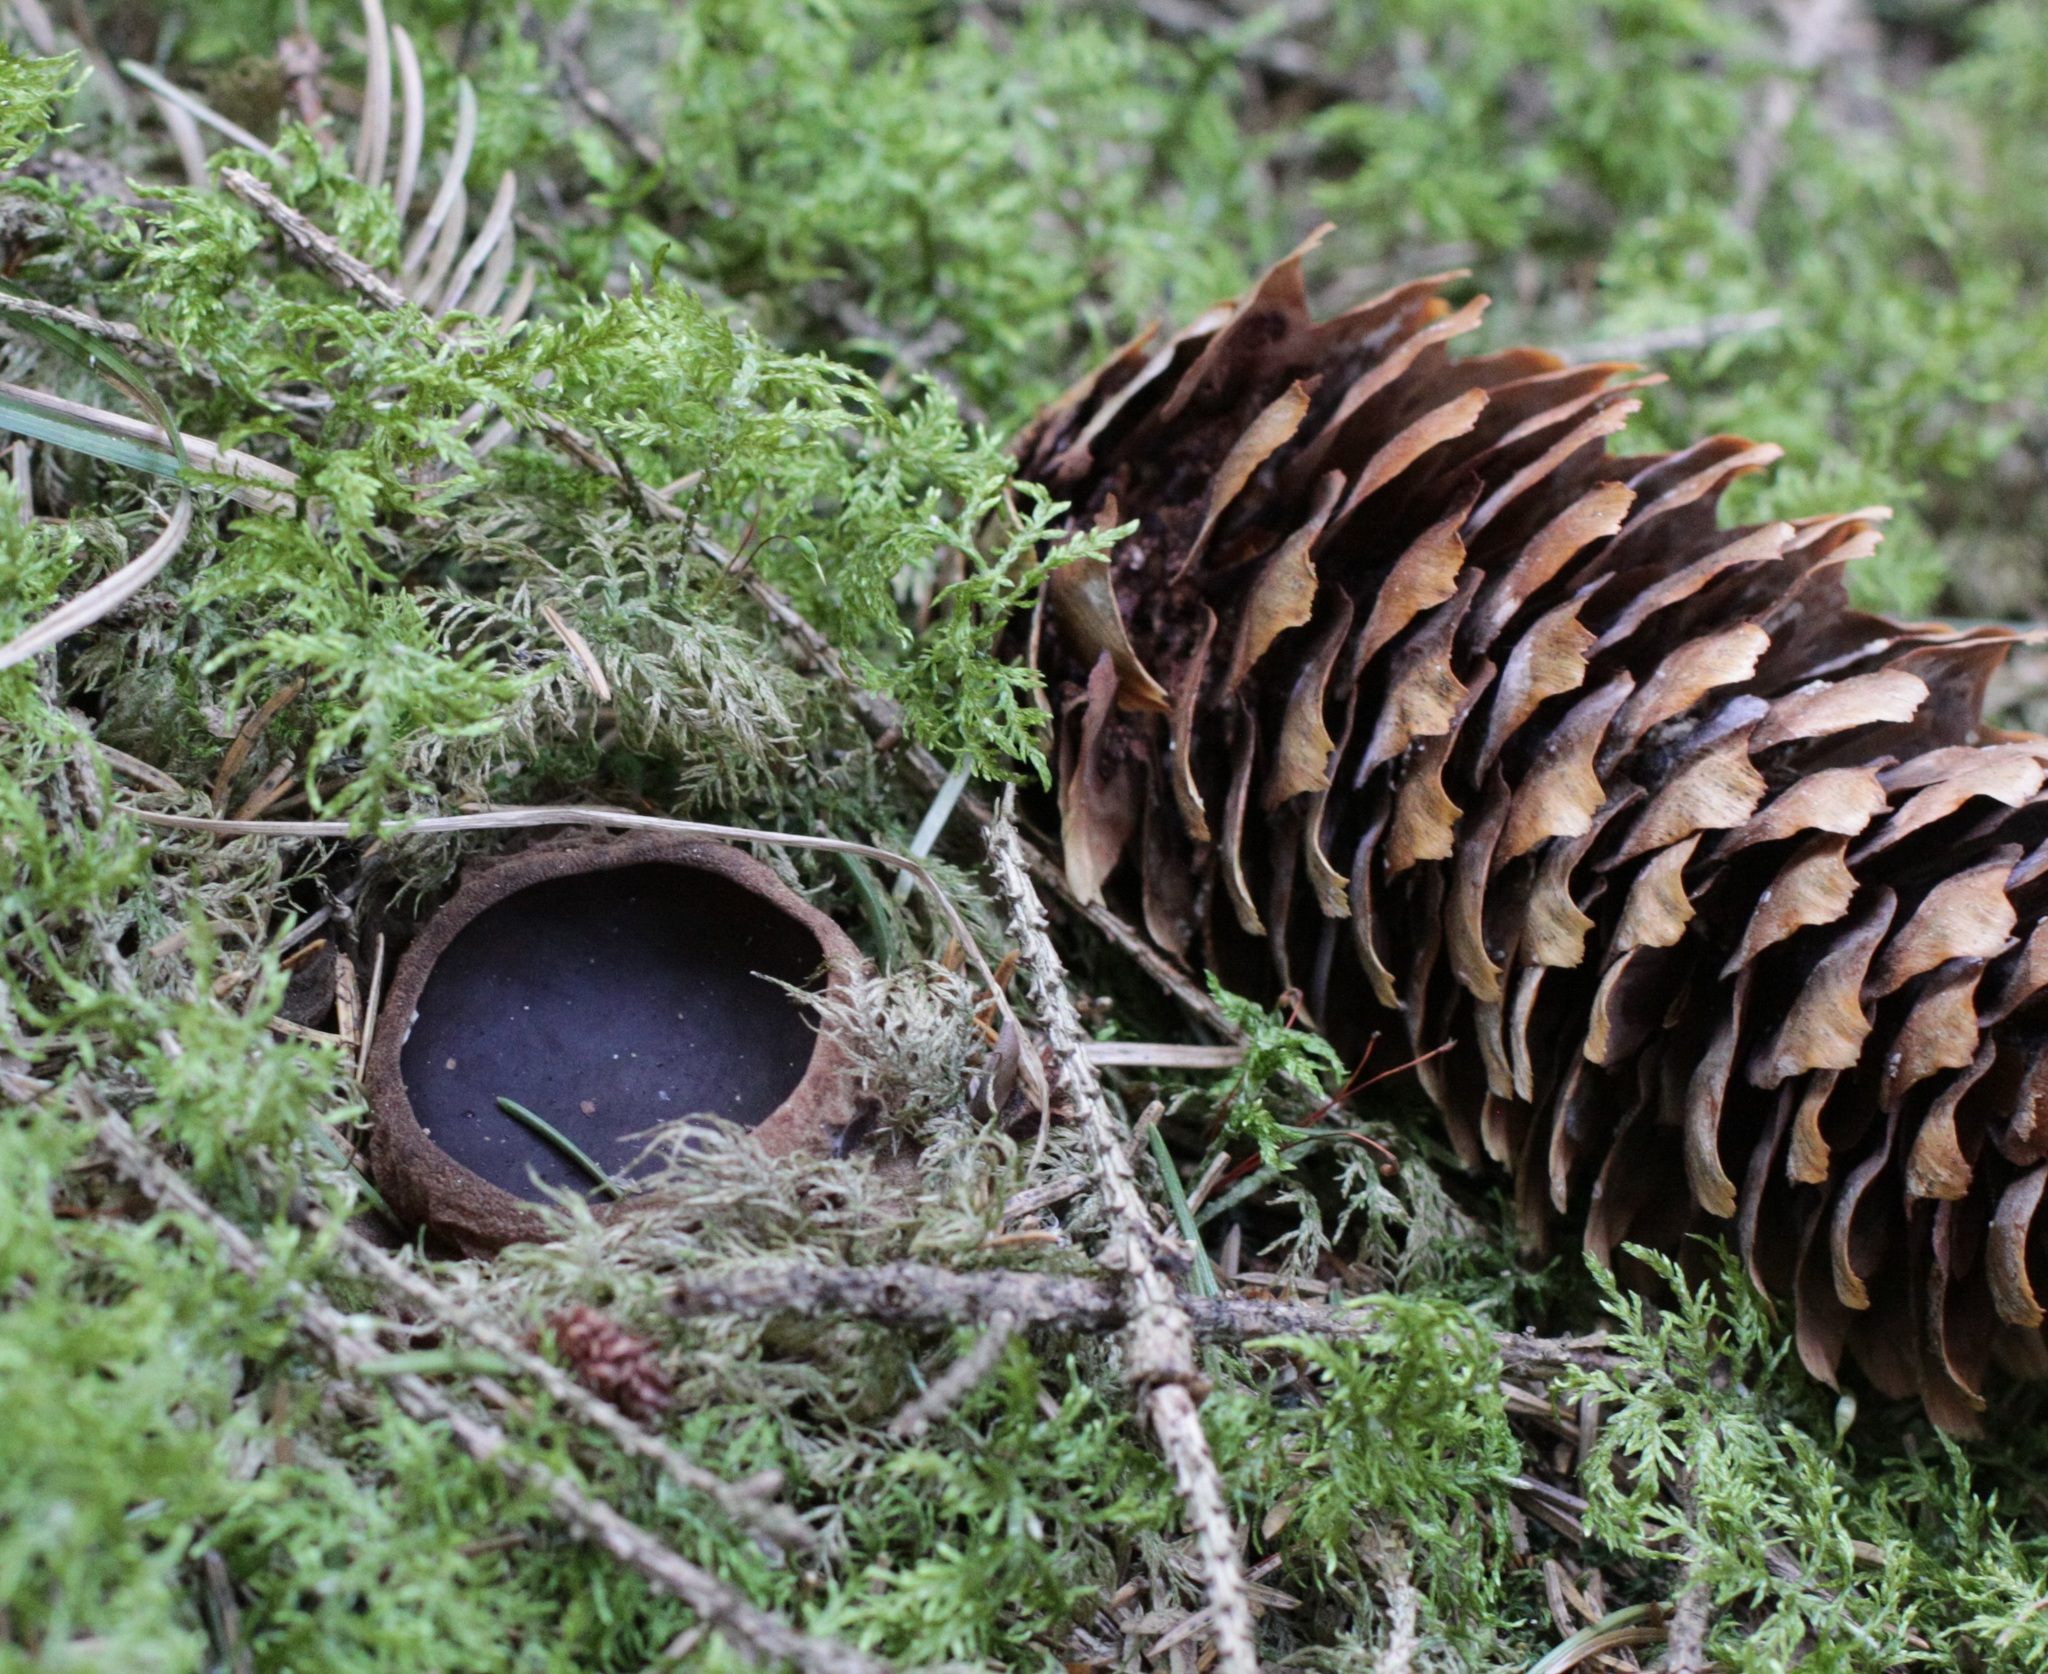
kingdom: Fungi
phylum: Ascomycota
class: Pezizomycetes
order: Pezizales
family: Sarcosomataceae
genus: Sarcosoma
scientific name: Sarcosoma globosum
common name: Charred-pancake cup
